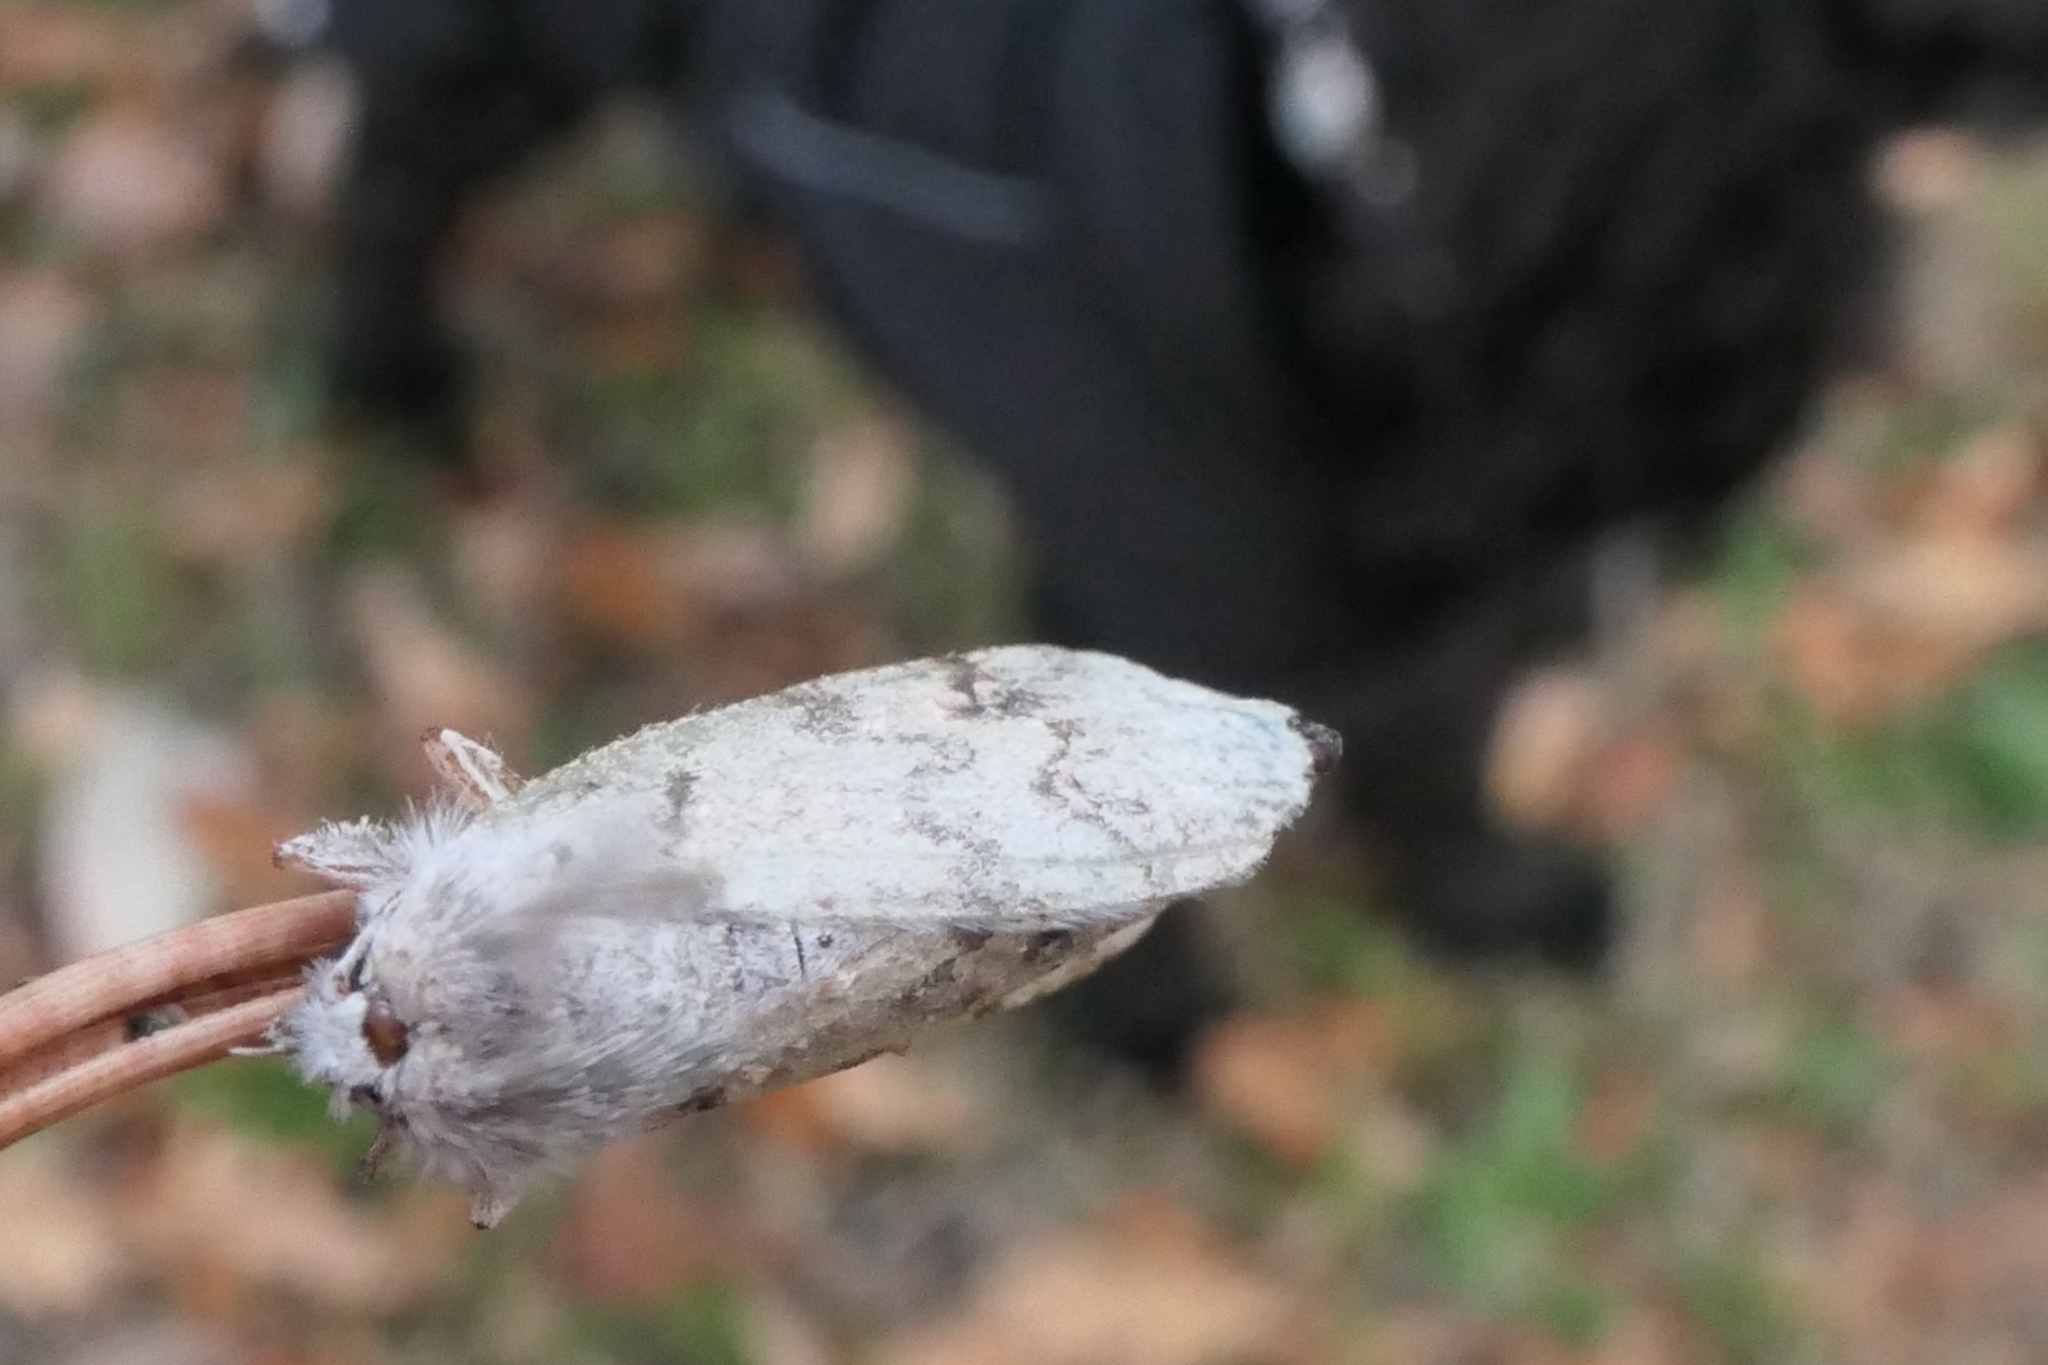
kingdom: Animalia
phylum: Arthropoda
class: Insecta
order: Lepidoptera
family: Geometridae
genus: Declana
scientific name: Declana floccosa
